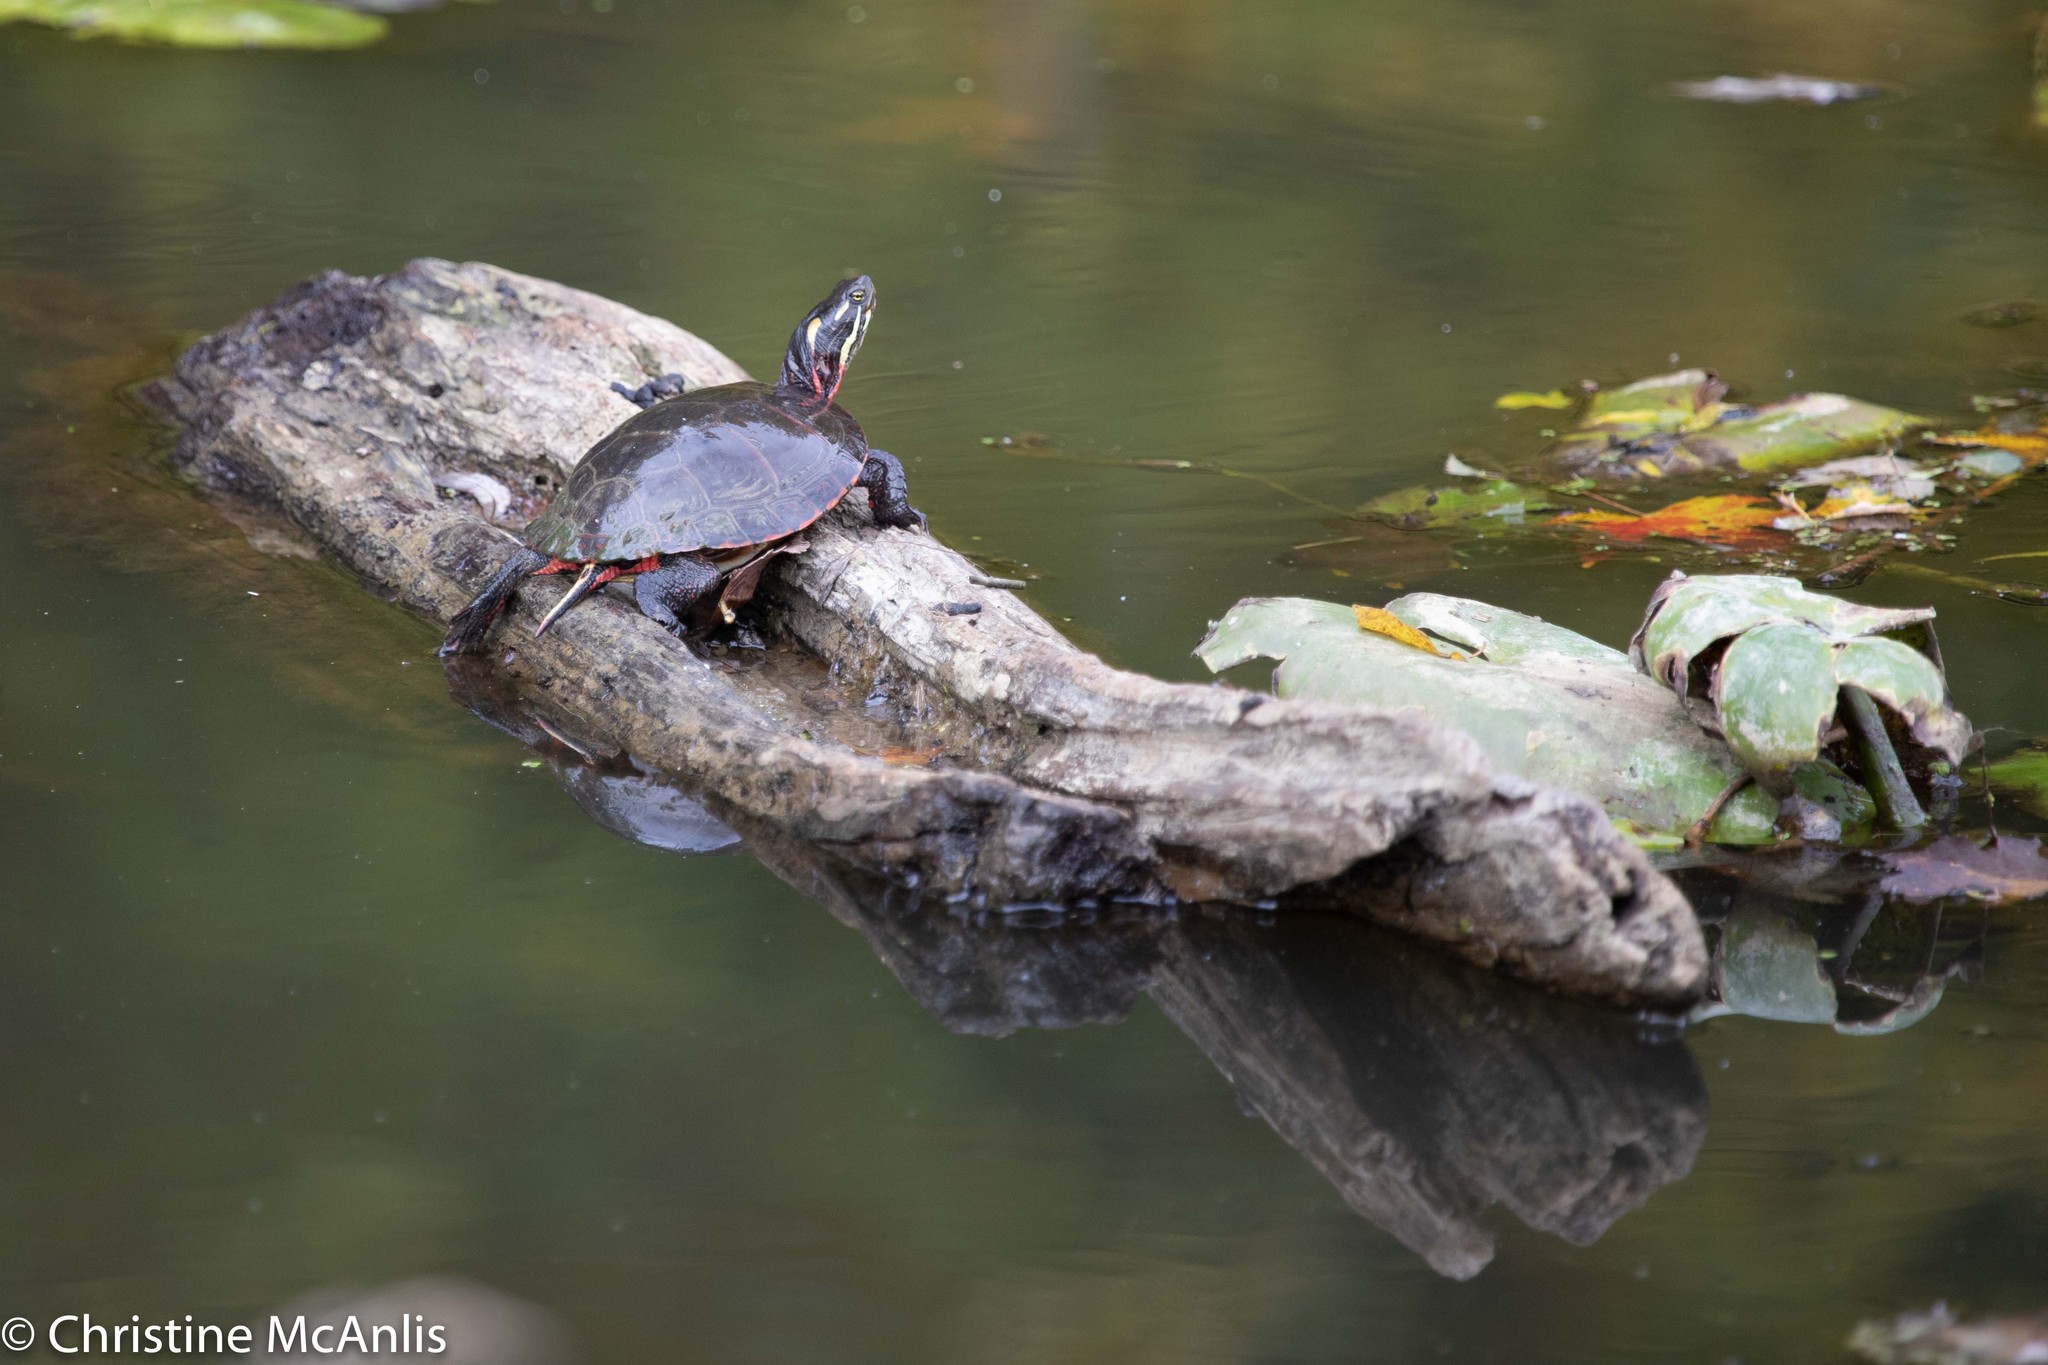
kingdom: Animalia
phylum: Chordata
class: Testudines
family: Emydidae
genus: Chrysemys
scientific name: Chrysemys picta
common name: Painted turtle
